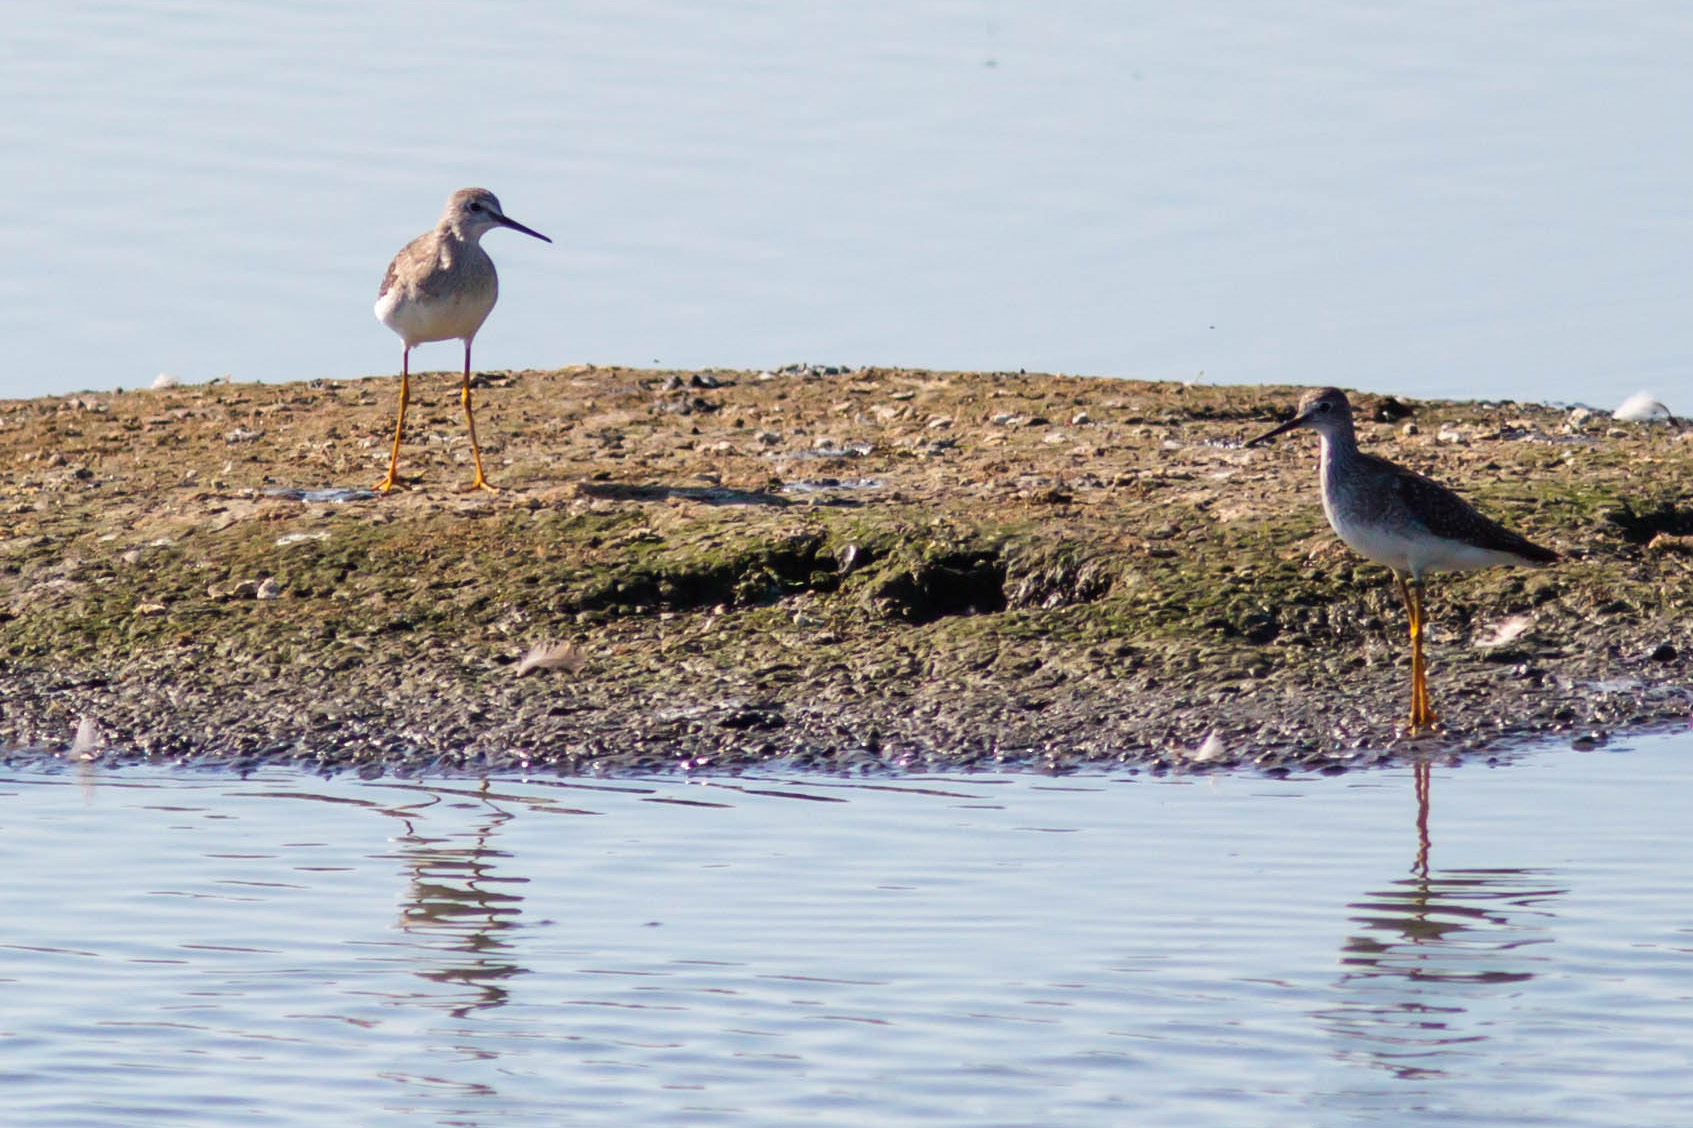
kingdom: Animalia
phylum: Chordata
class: Aves
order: Charadriiformes
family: Scolopacidae
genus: Tringa
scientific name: Tringa flavipes
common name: Lesser yellowlegs
